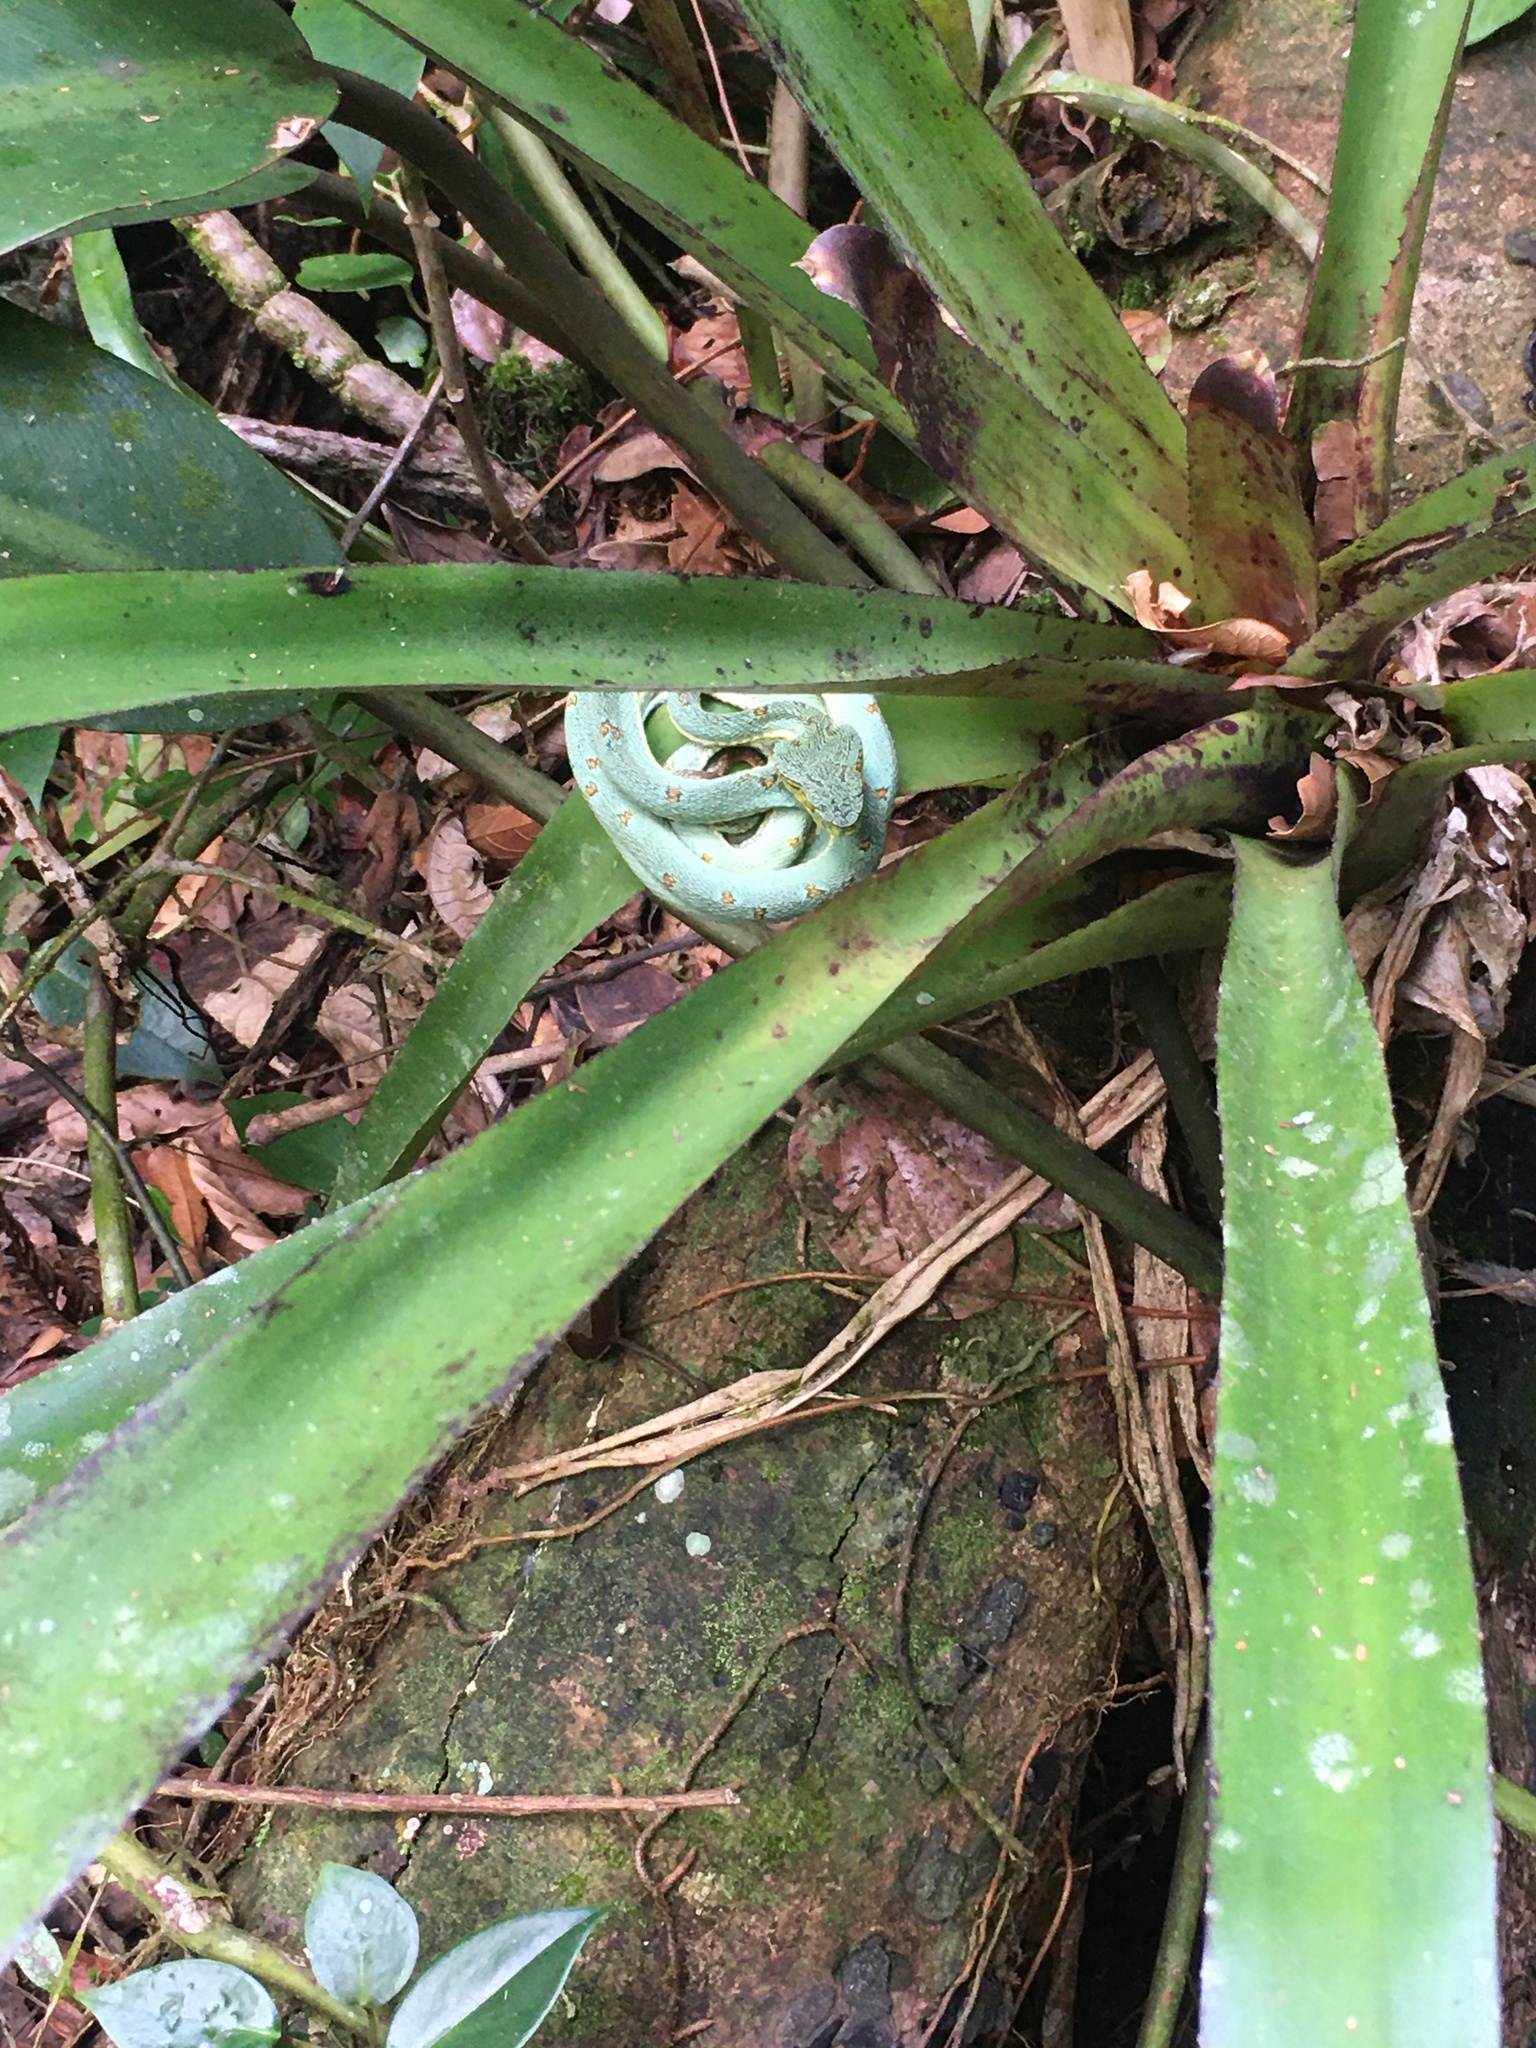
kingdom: Animalia
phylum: Chordata
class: Squamata
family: Viperidae
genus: Bothrops
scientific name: Bothrops bilineatus
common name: Green jararaca
